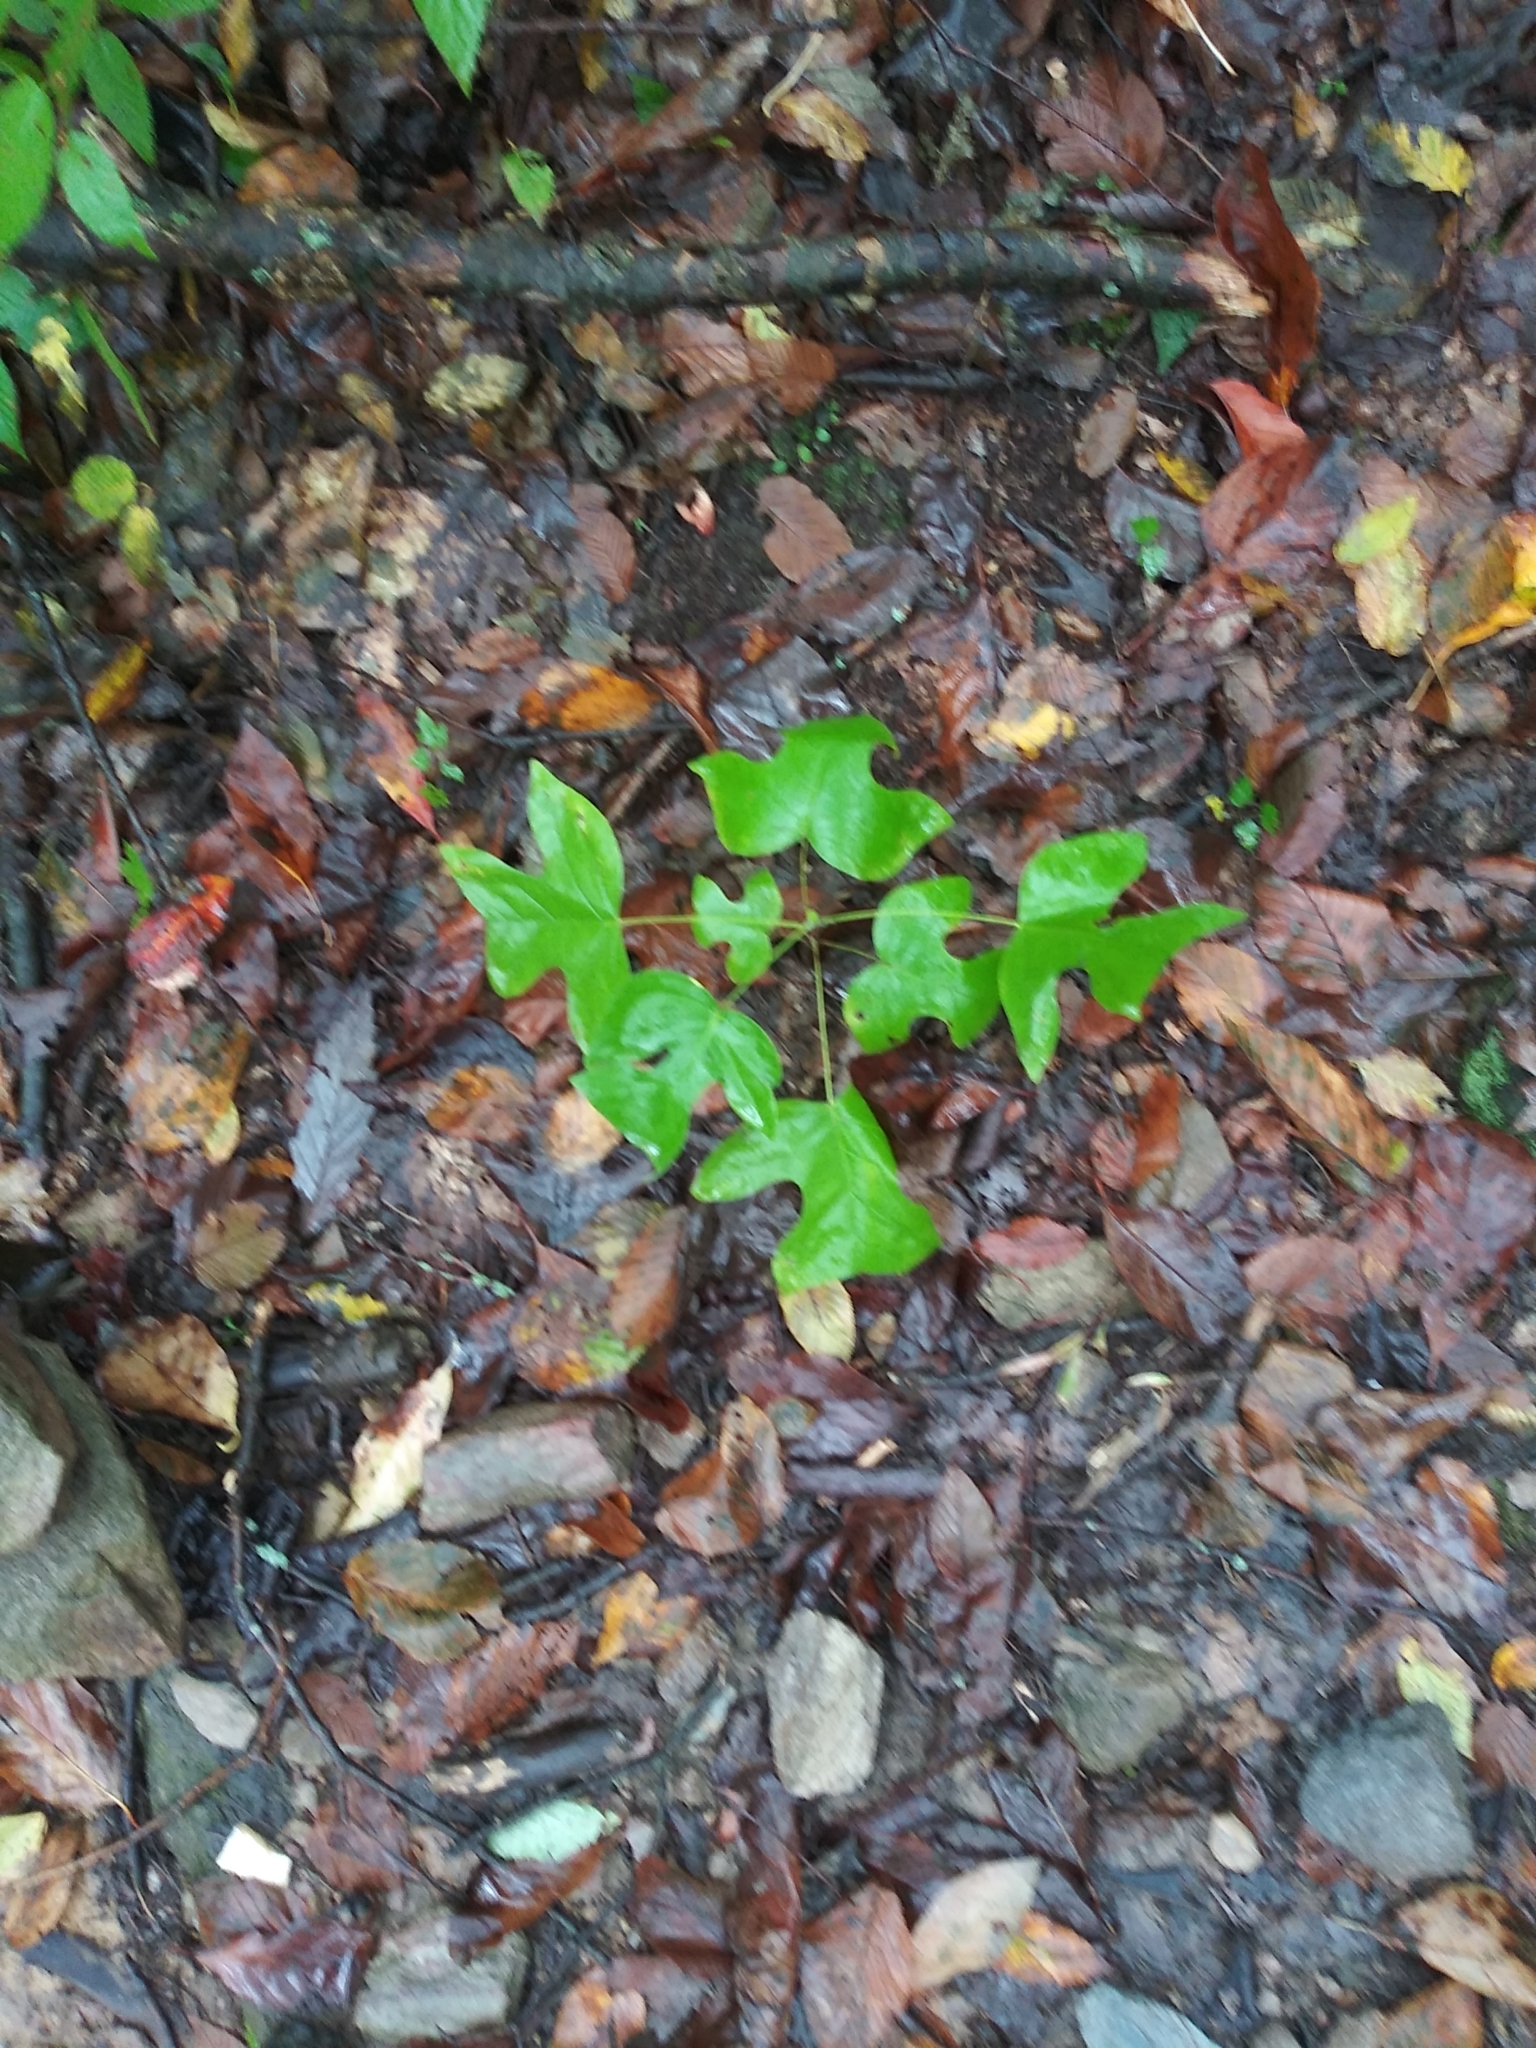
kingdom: Plantae
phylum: Tracheophyta
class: Magnoliopsida
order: Magnoliales
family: Magnoliaceae
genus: Liriodendron
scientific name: Liriodendron tulipifera
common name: Tulip tree
